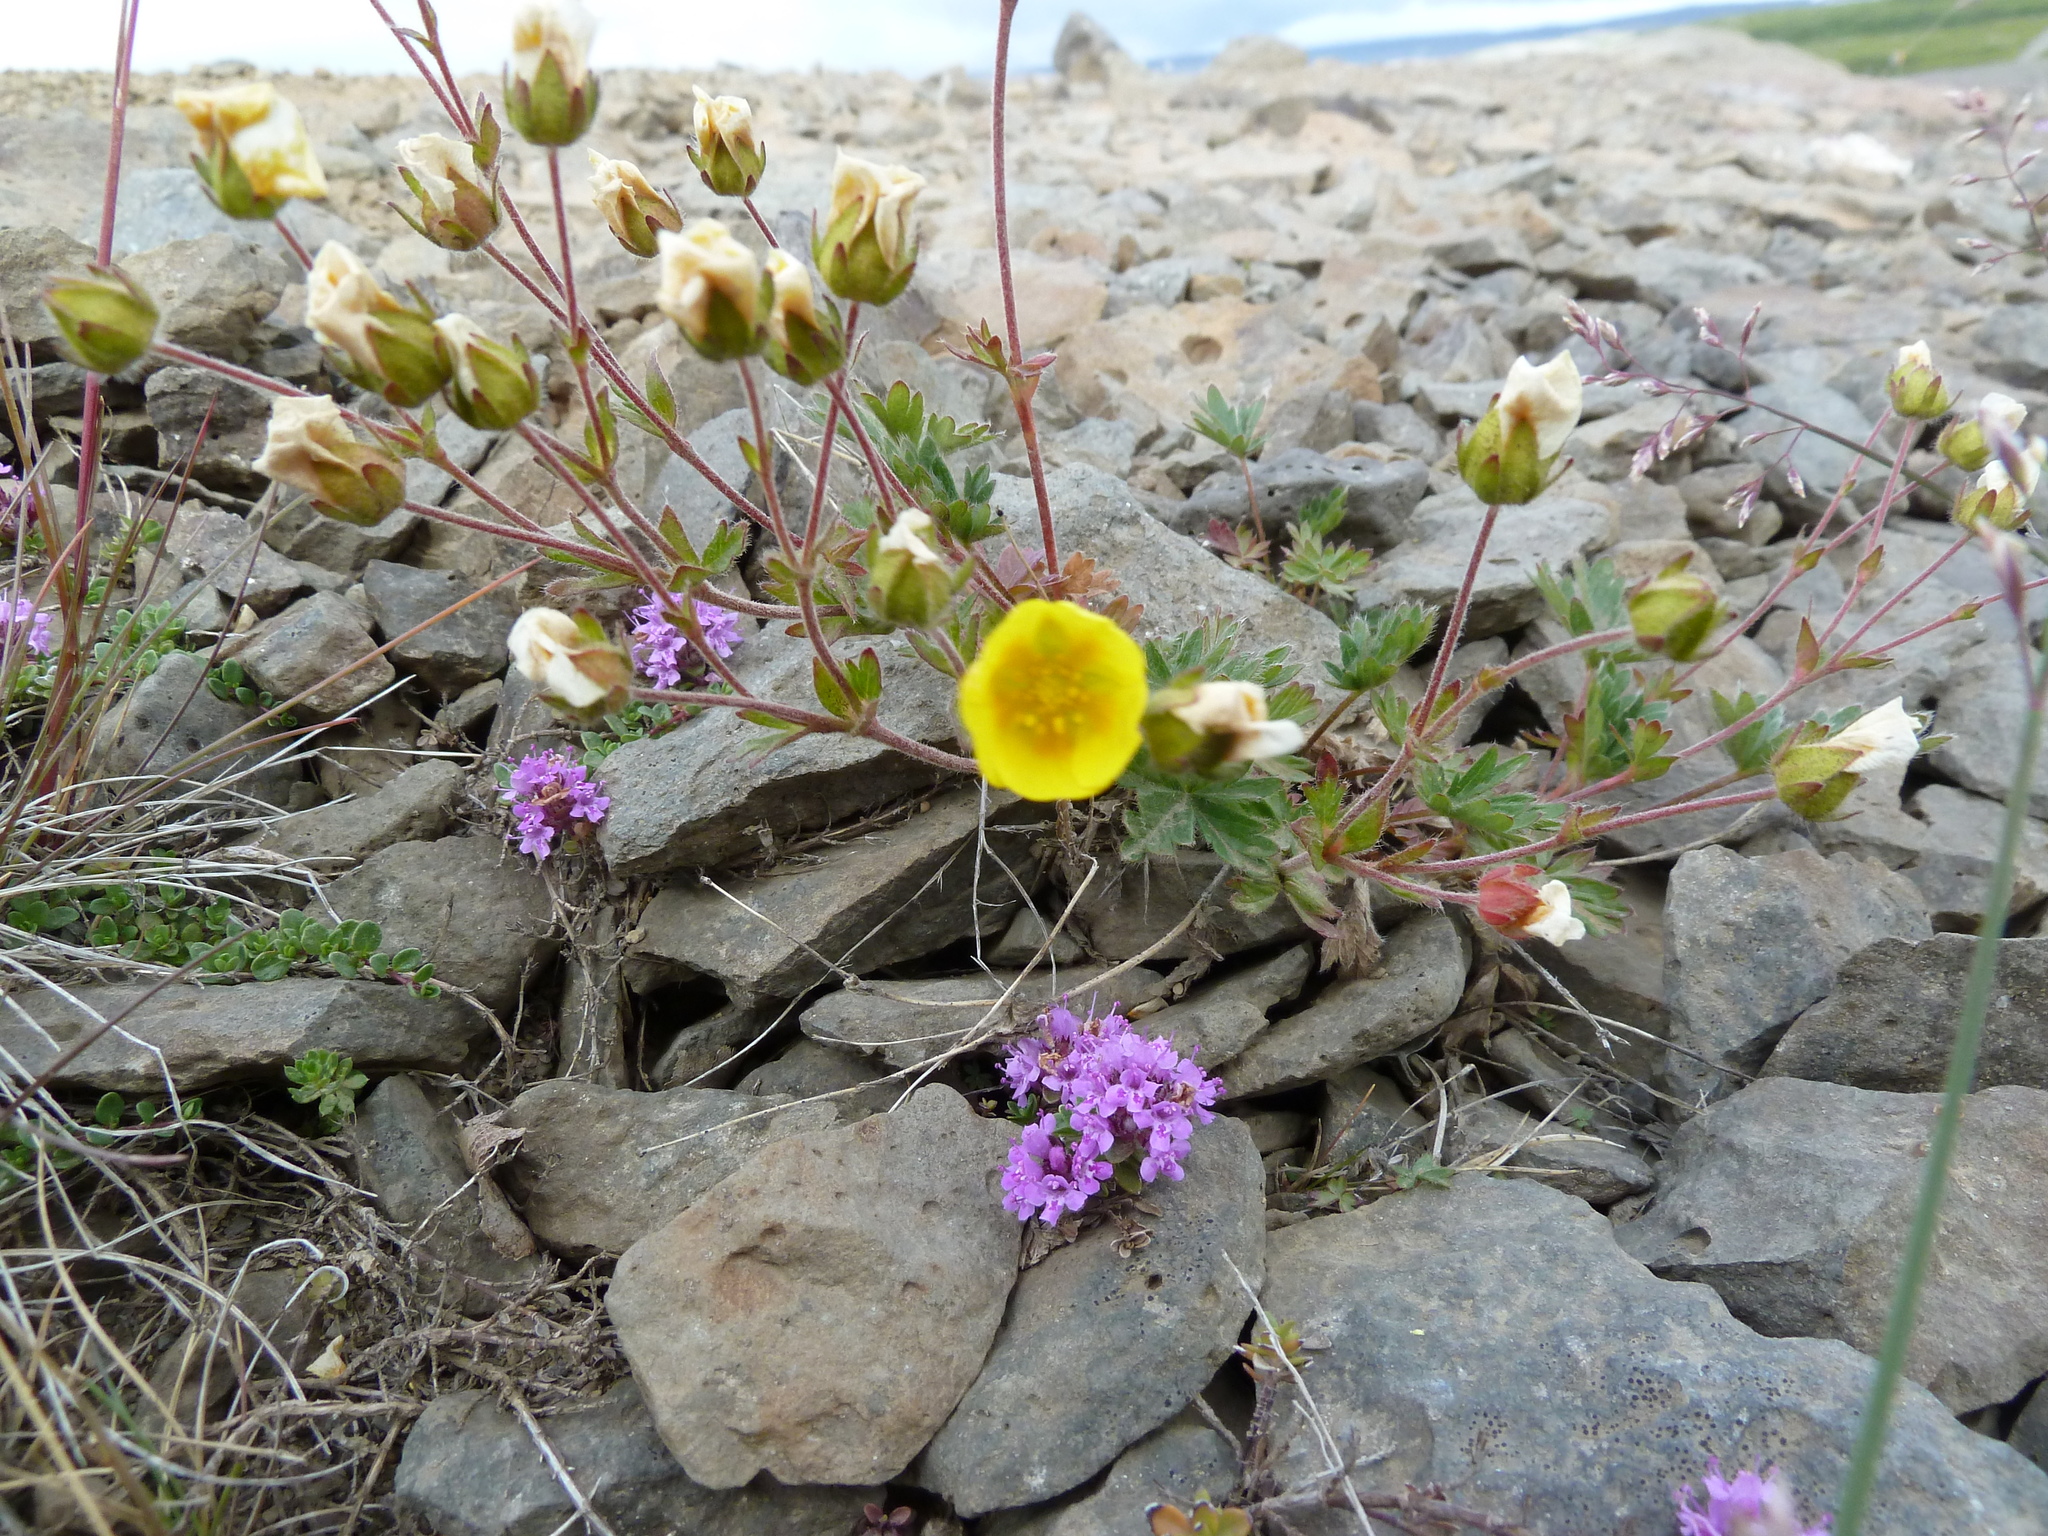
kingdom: Plantae
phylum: Tracheophyta
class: Magnoliopsida
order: Rosales
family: Rosaceae
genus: Potentilla
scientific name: Potentilla crantzii
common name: Alpine cinquefoil
